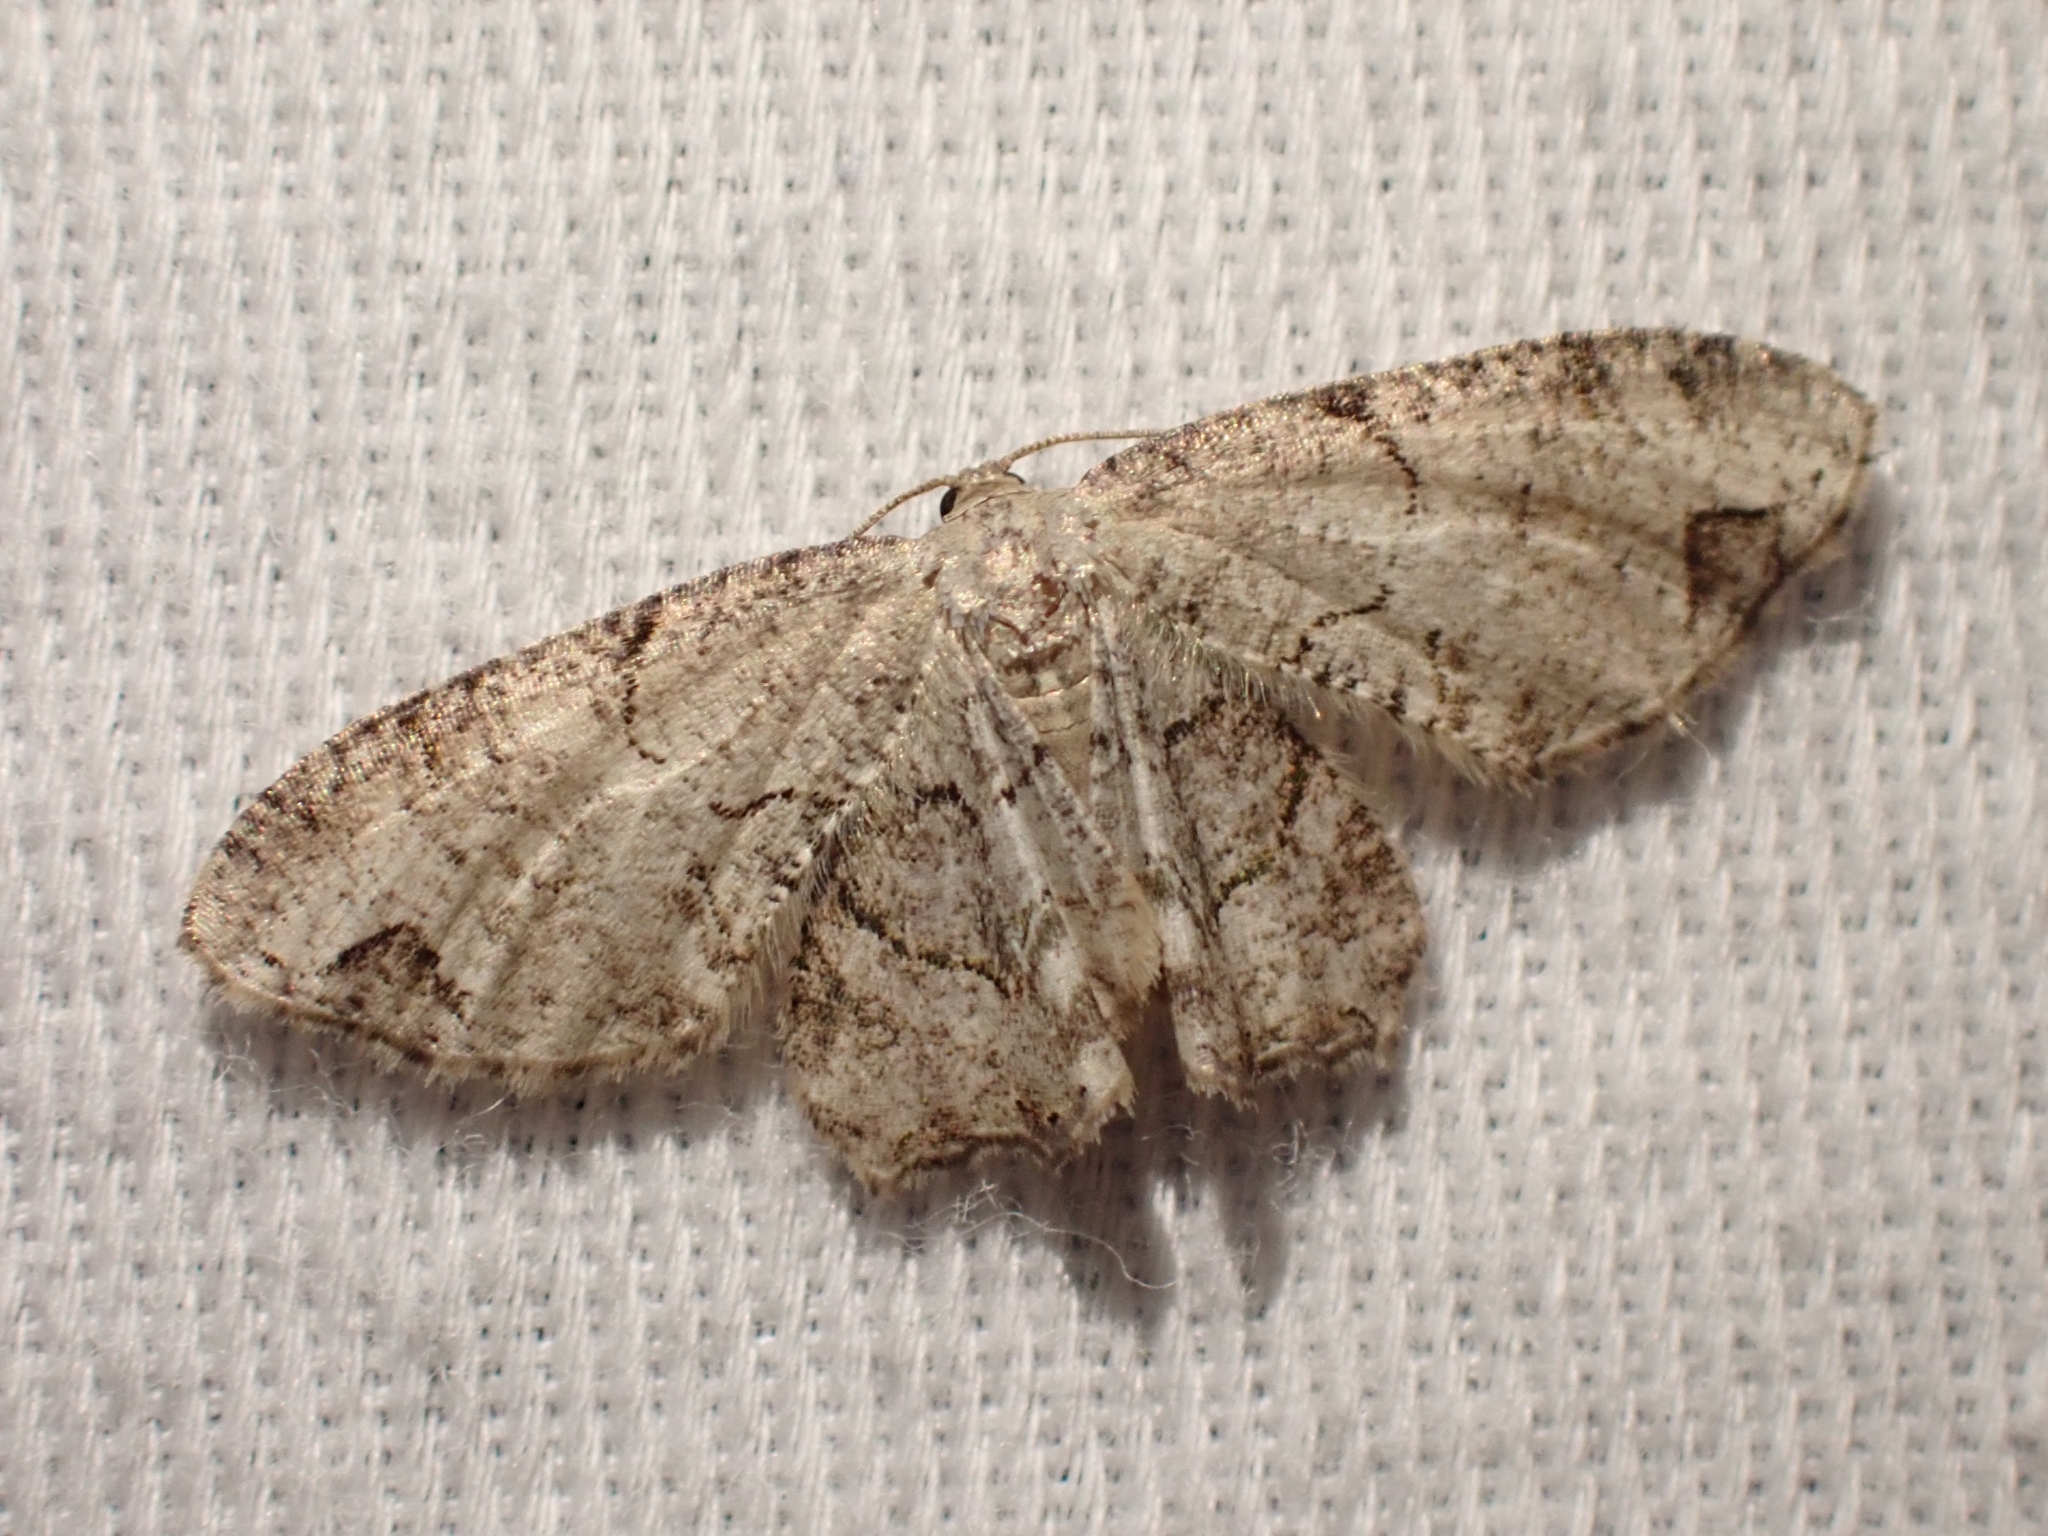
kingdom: Animalia
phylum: Arthropoda
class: Insecta
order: Lepidoptera
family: Uraniidae
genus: Epiplema
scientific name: Epiplema Callizzia amorata
